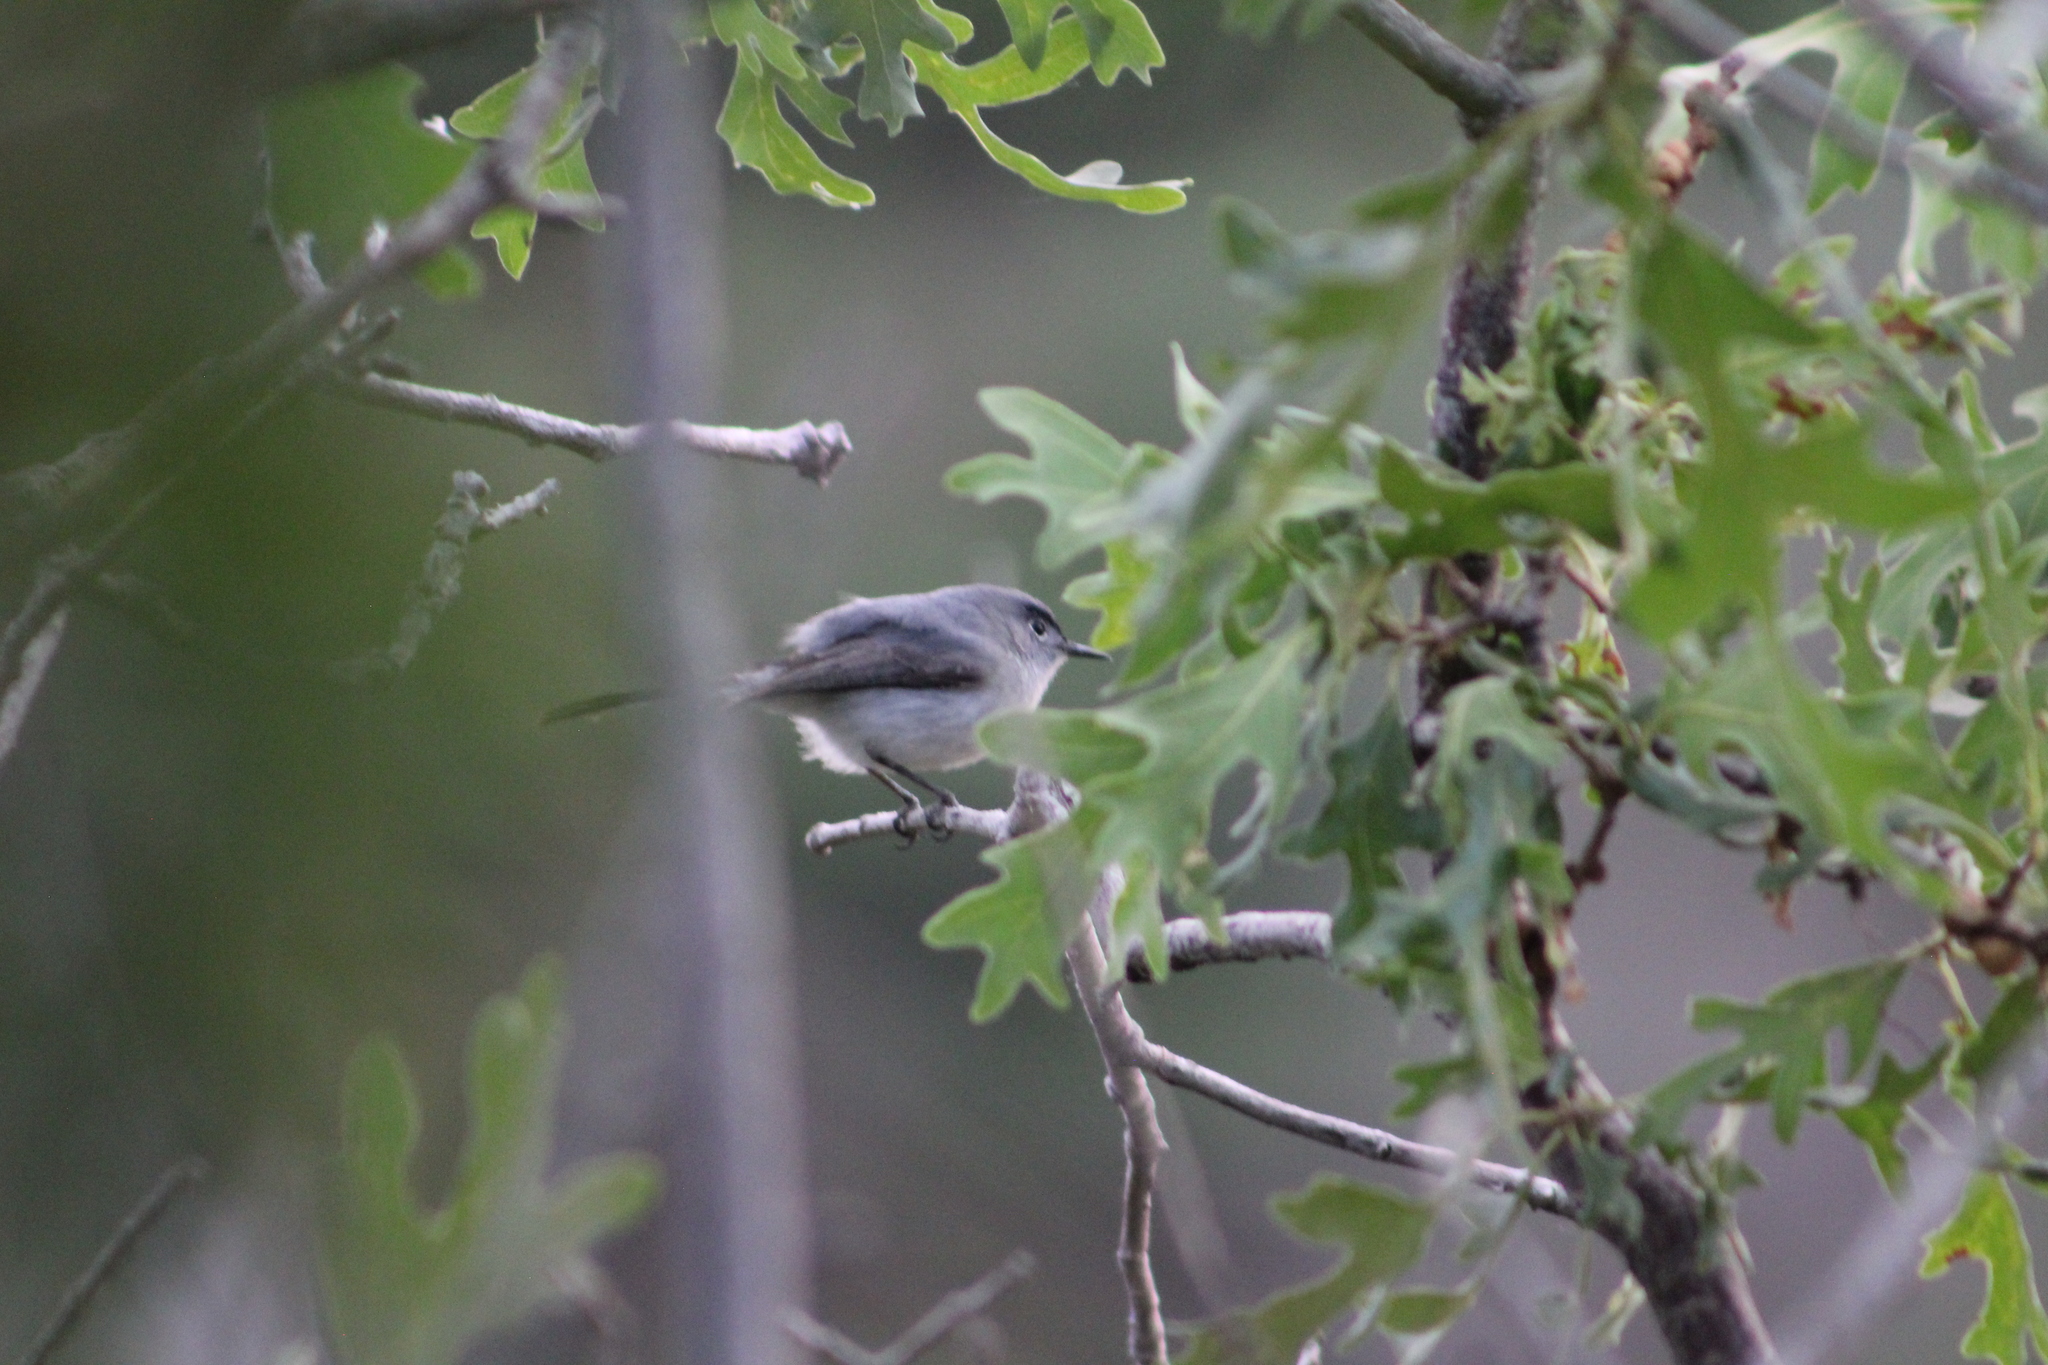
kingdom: Animalia
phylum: Chordata
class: Aves
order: Passeriformes
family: Polioptilidae
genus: Polioptila
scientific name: Polioptila caerulea
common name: Blue-gray gnatcatcher
